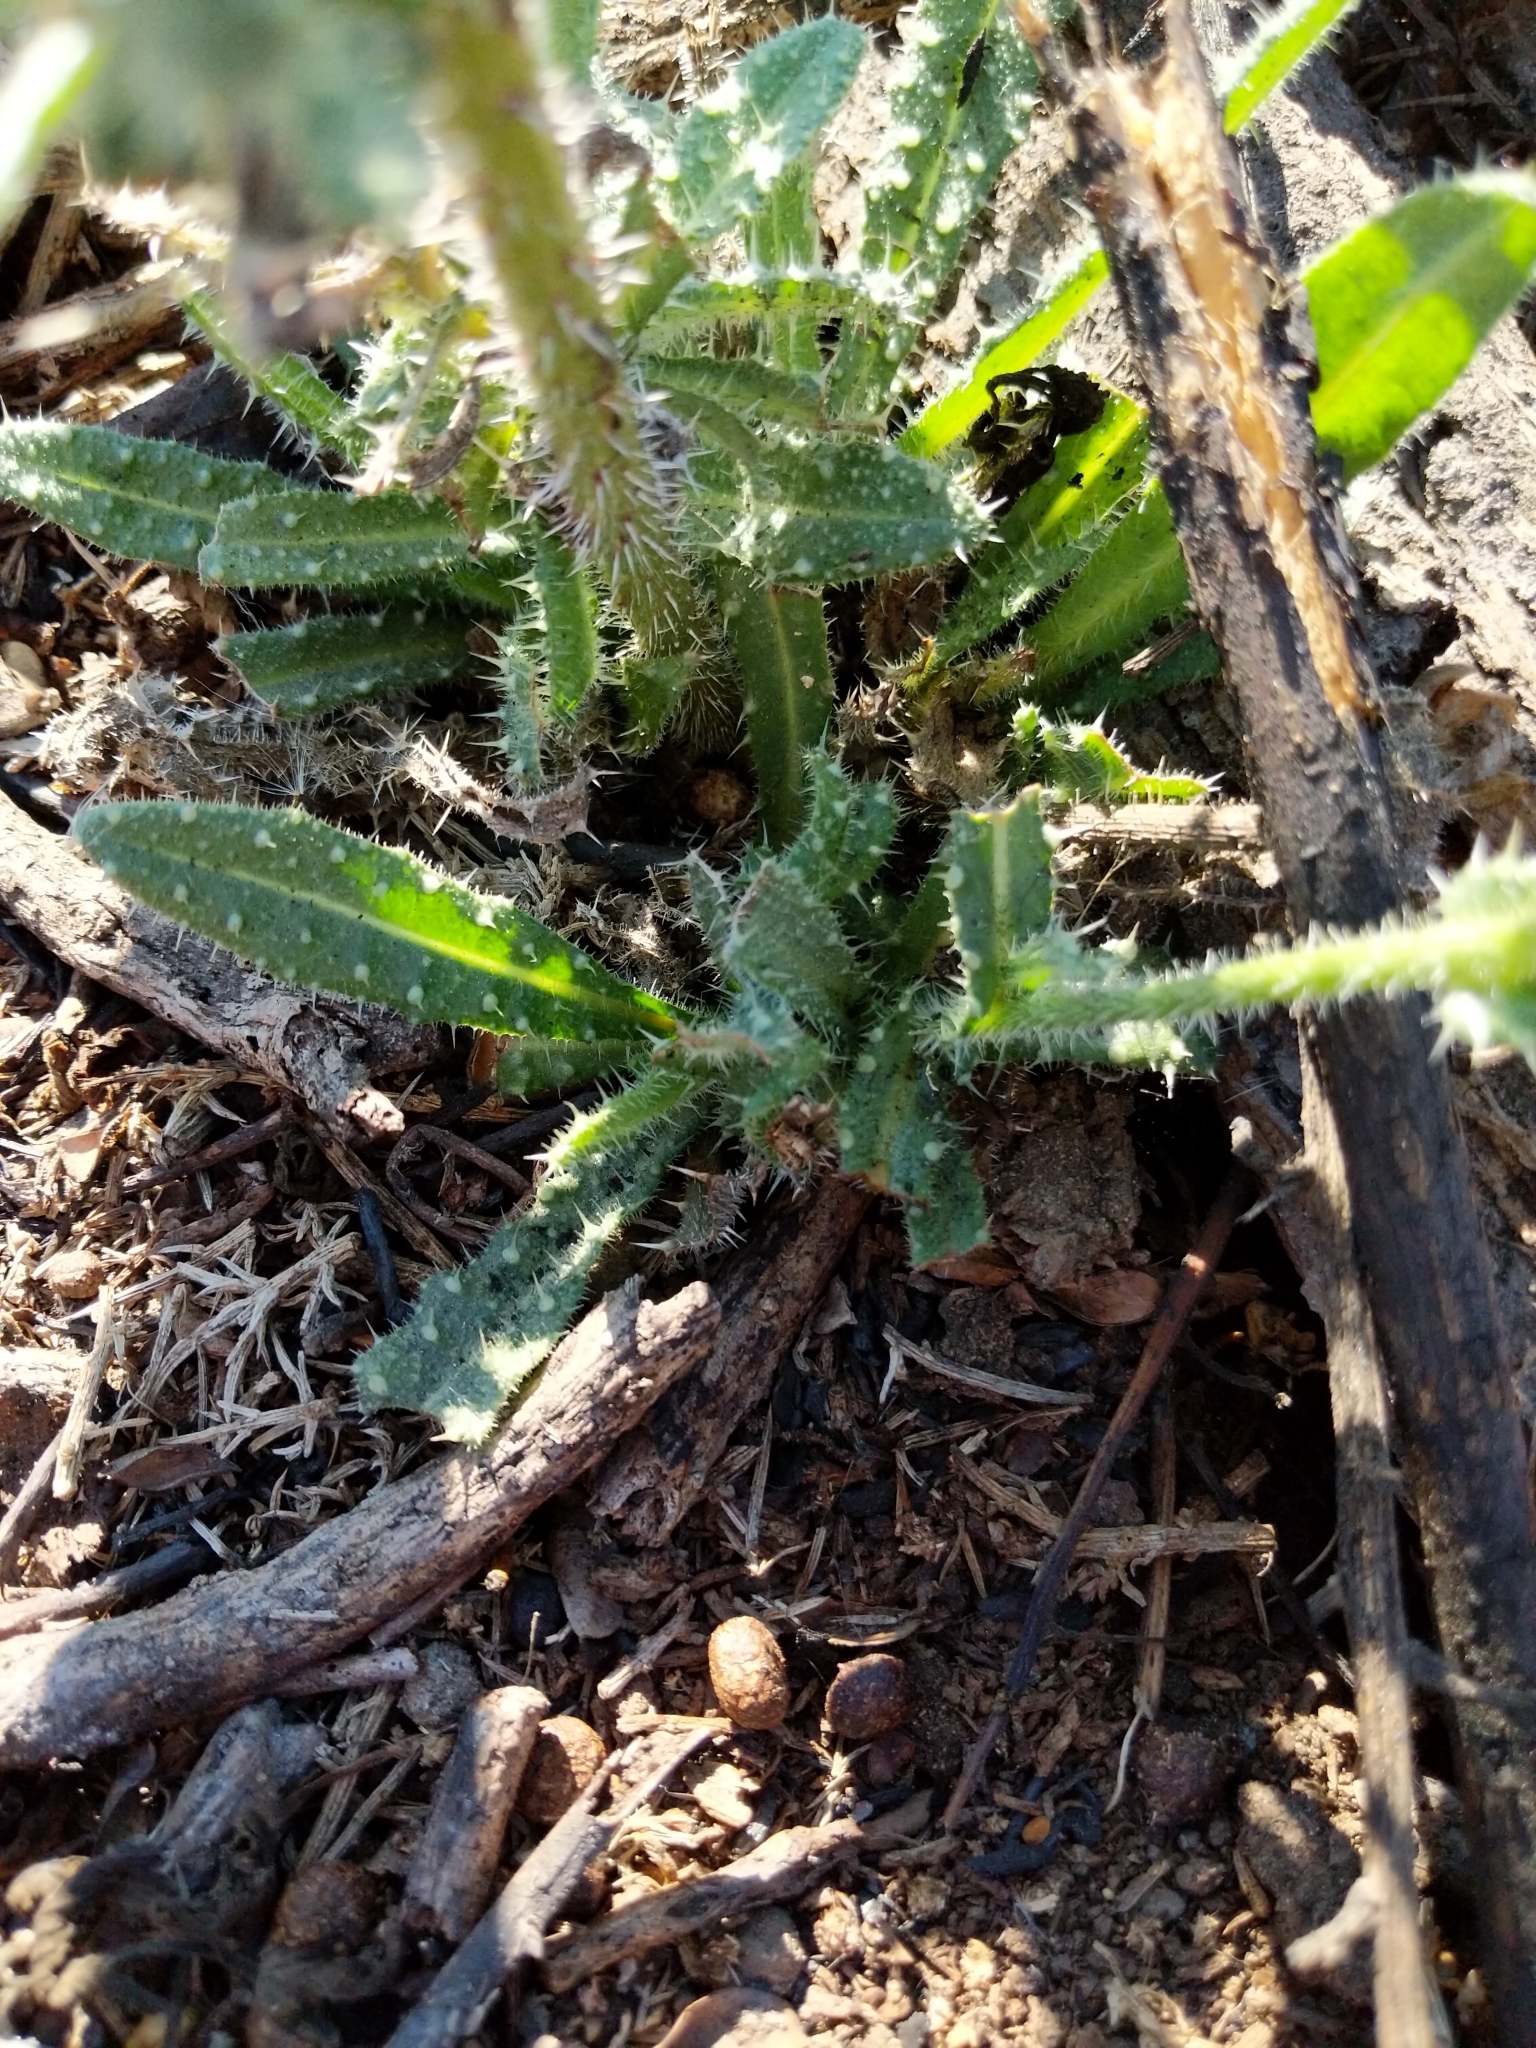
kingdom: Plantae
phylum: Tracheophyta
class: Magnoliopsida
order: Asterales
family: Asteraceae
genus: Helminthotheca
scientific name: Helminthotheca echioides
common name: Ox-tongue
